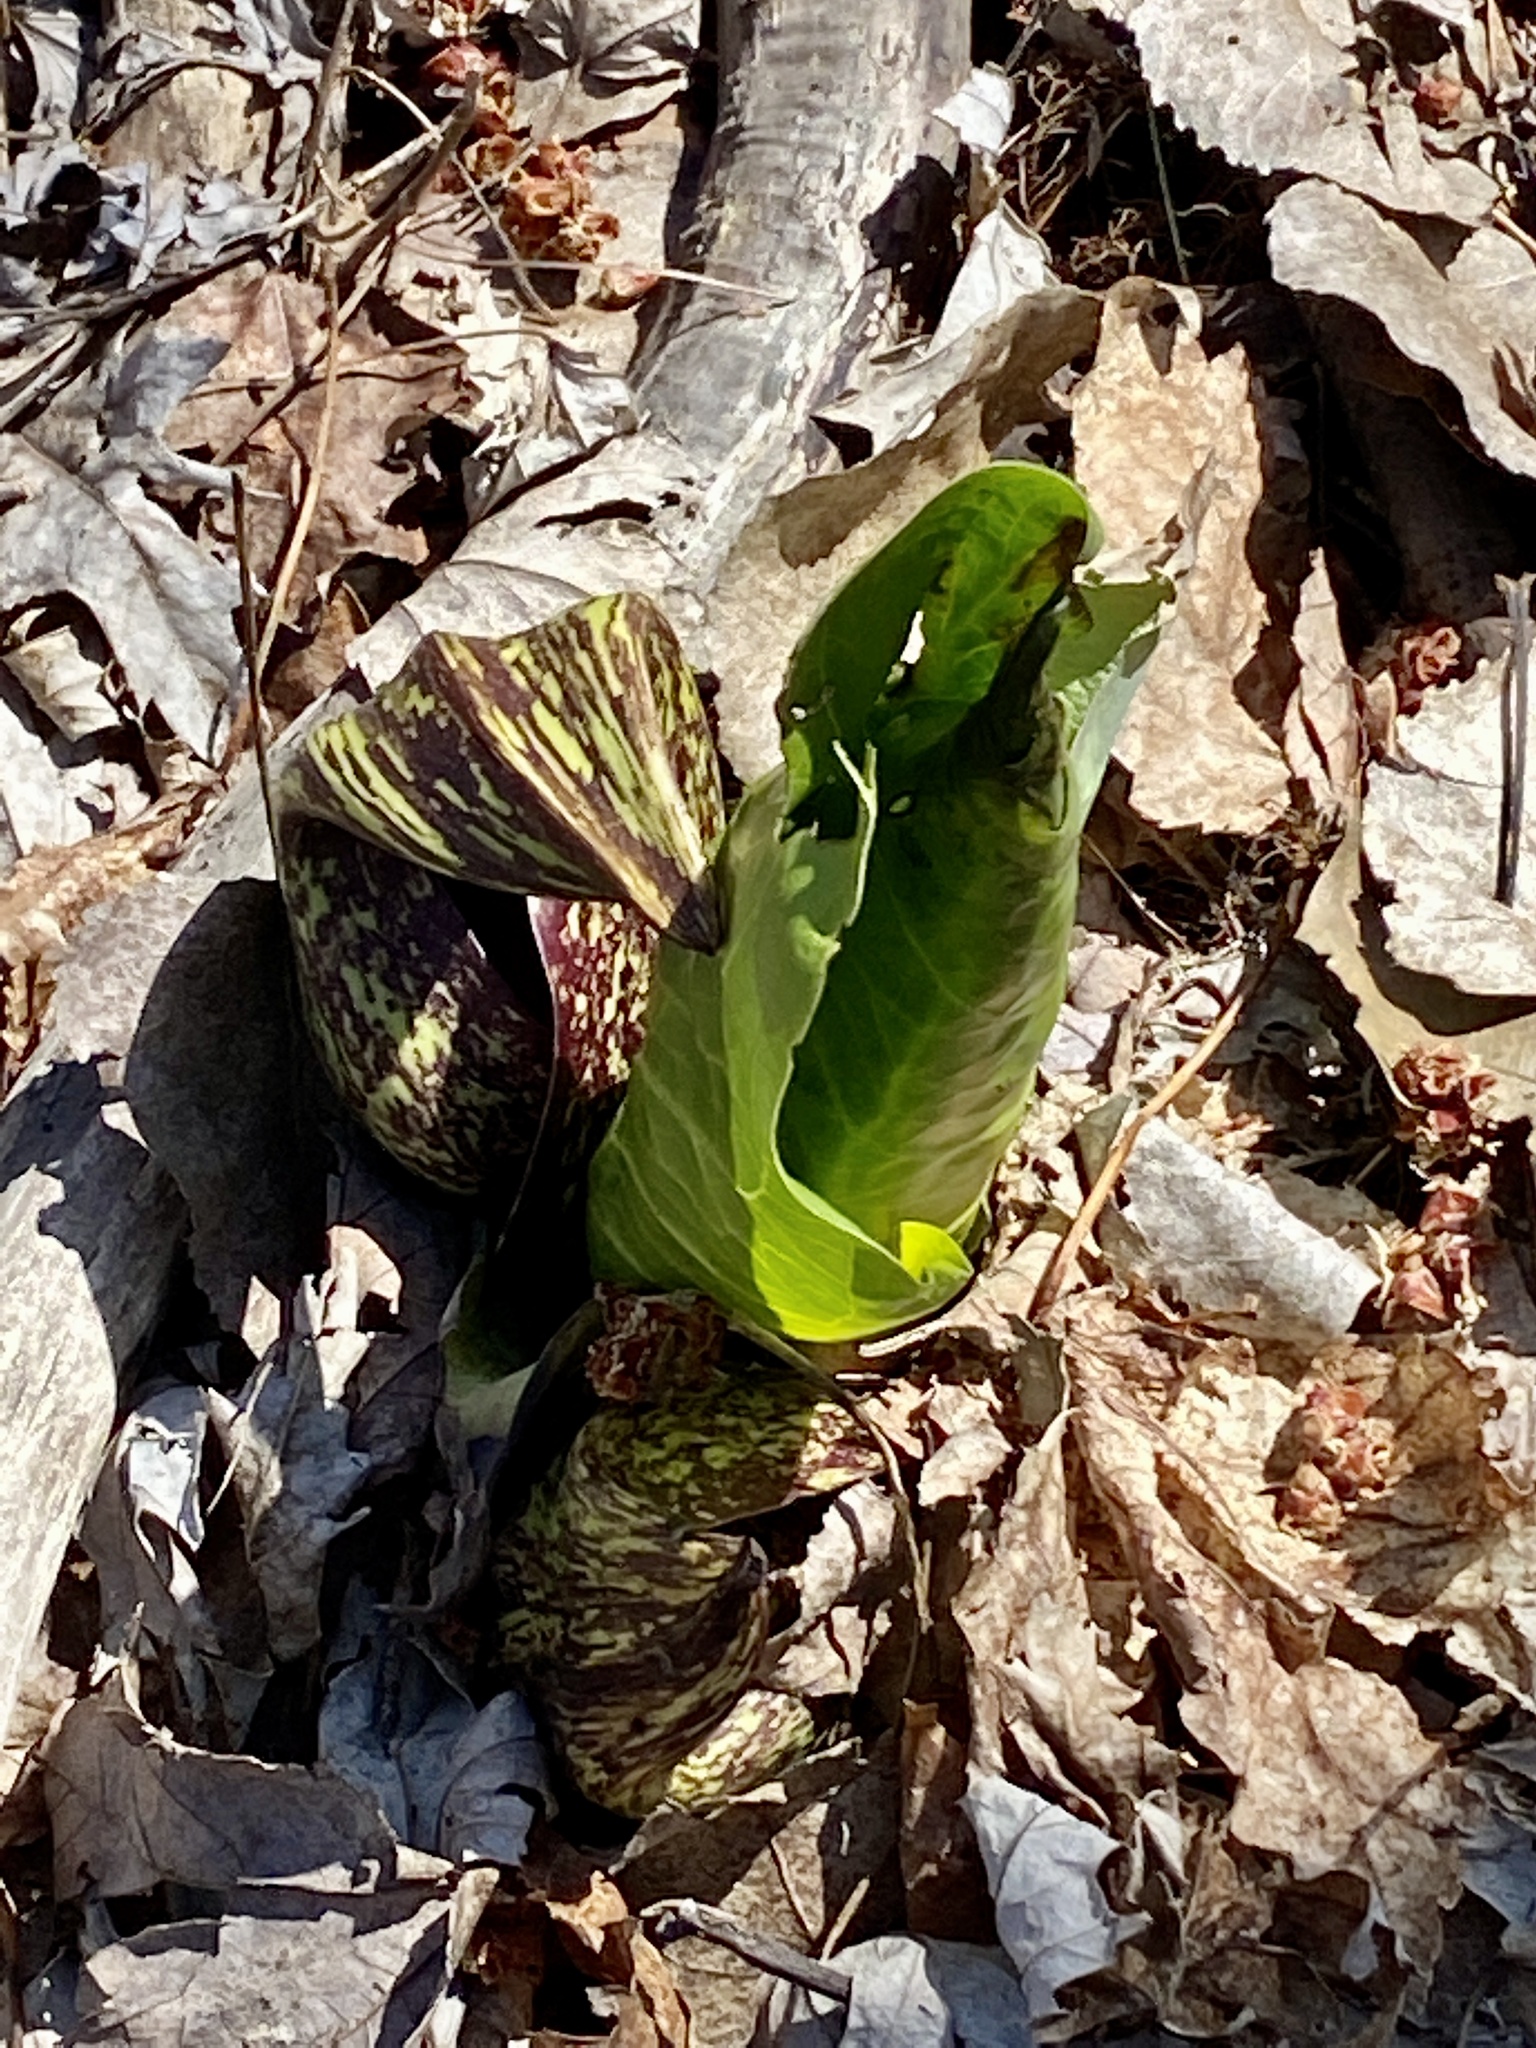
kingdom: Plantae
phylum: Tracheophyta
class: Liliopsida
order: Alismatales
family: Araceae
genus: Symplocarpus
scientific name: Symplocarpus foetidus
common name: Eastern skunk cabbage
